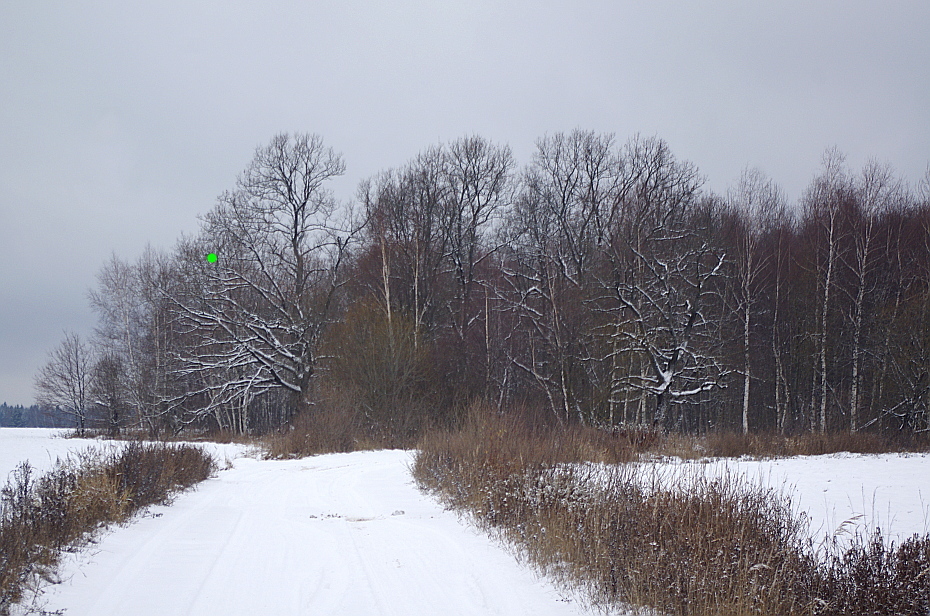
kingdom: Plantae
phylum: Tracheophyta
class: Magnoliopsida
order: Fagales
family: Fagaceae
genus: Quercus
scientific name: Quercus robur
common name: Pedunculate oak
